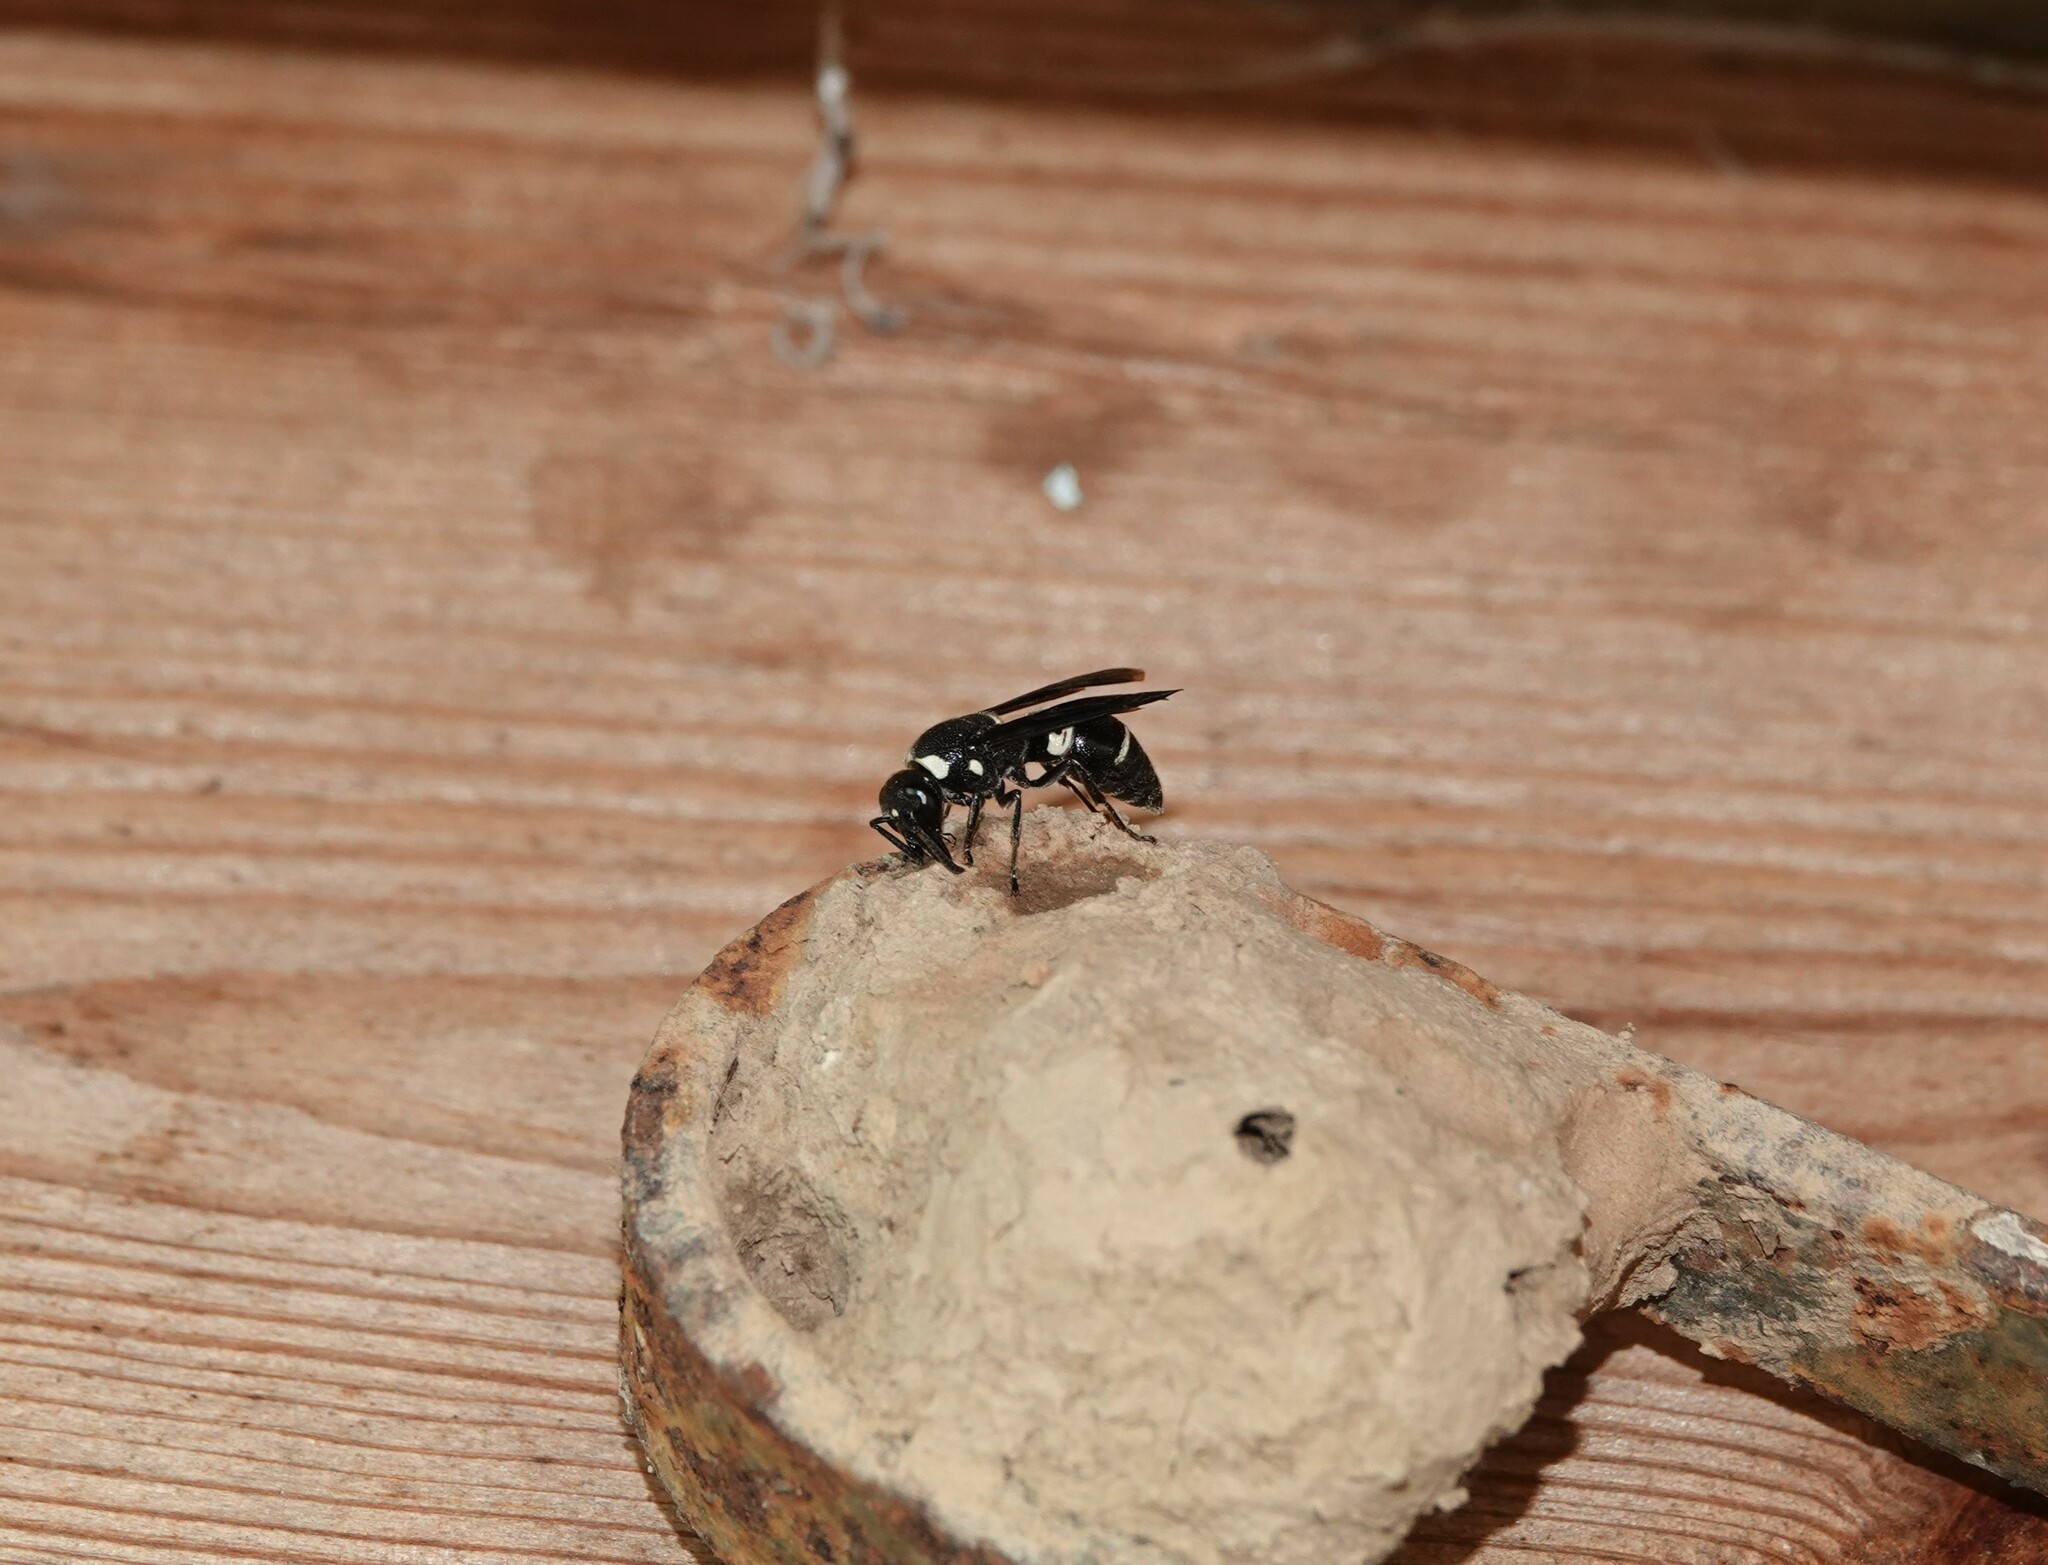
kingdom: Animalia
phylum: Arthropoda
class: Insecta
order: Hymenoptera
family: Eumenidae
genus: Euodynerus
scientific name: Euodynerus megaera
